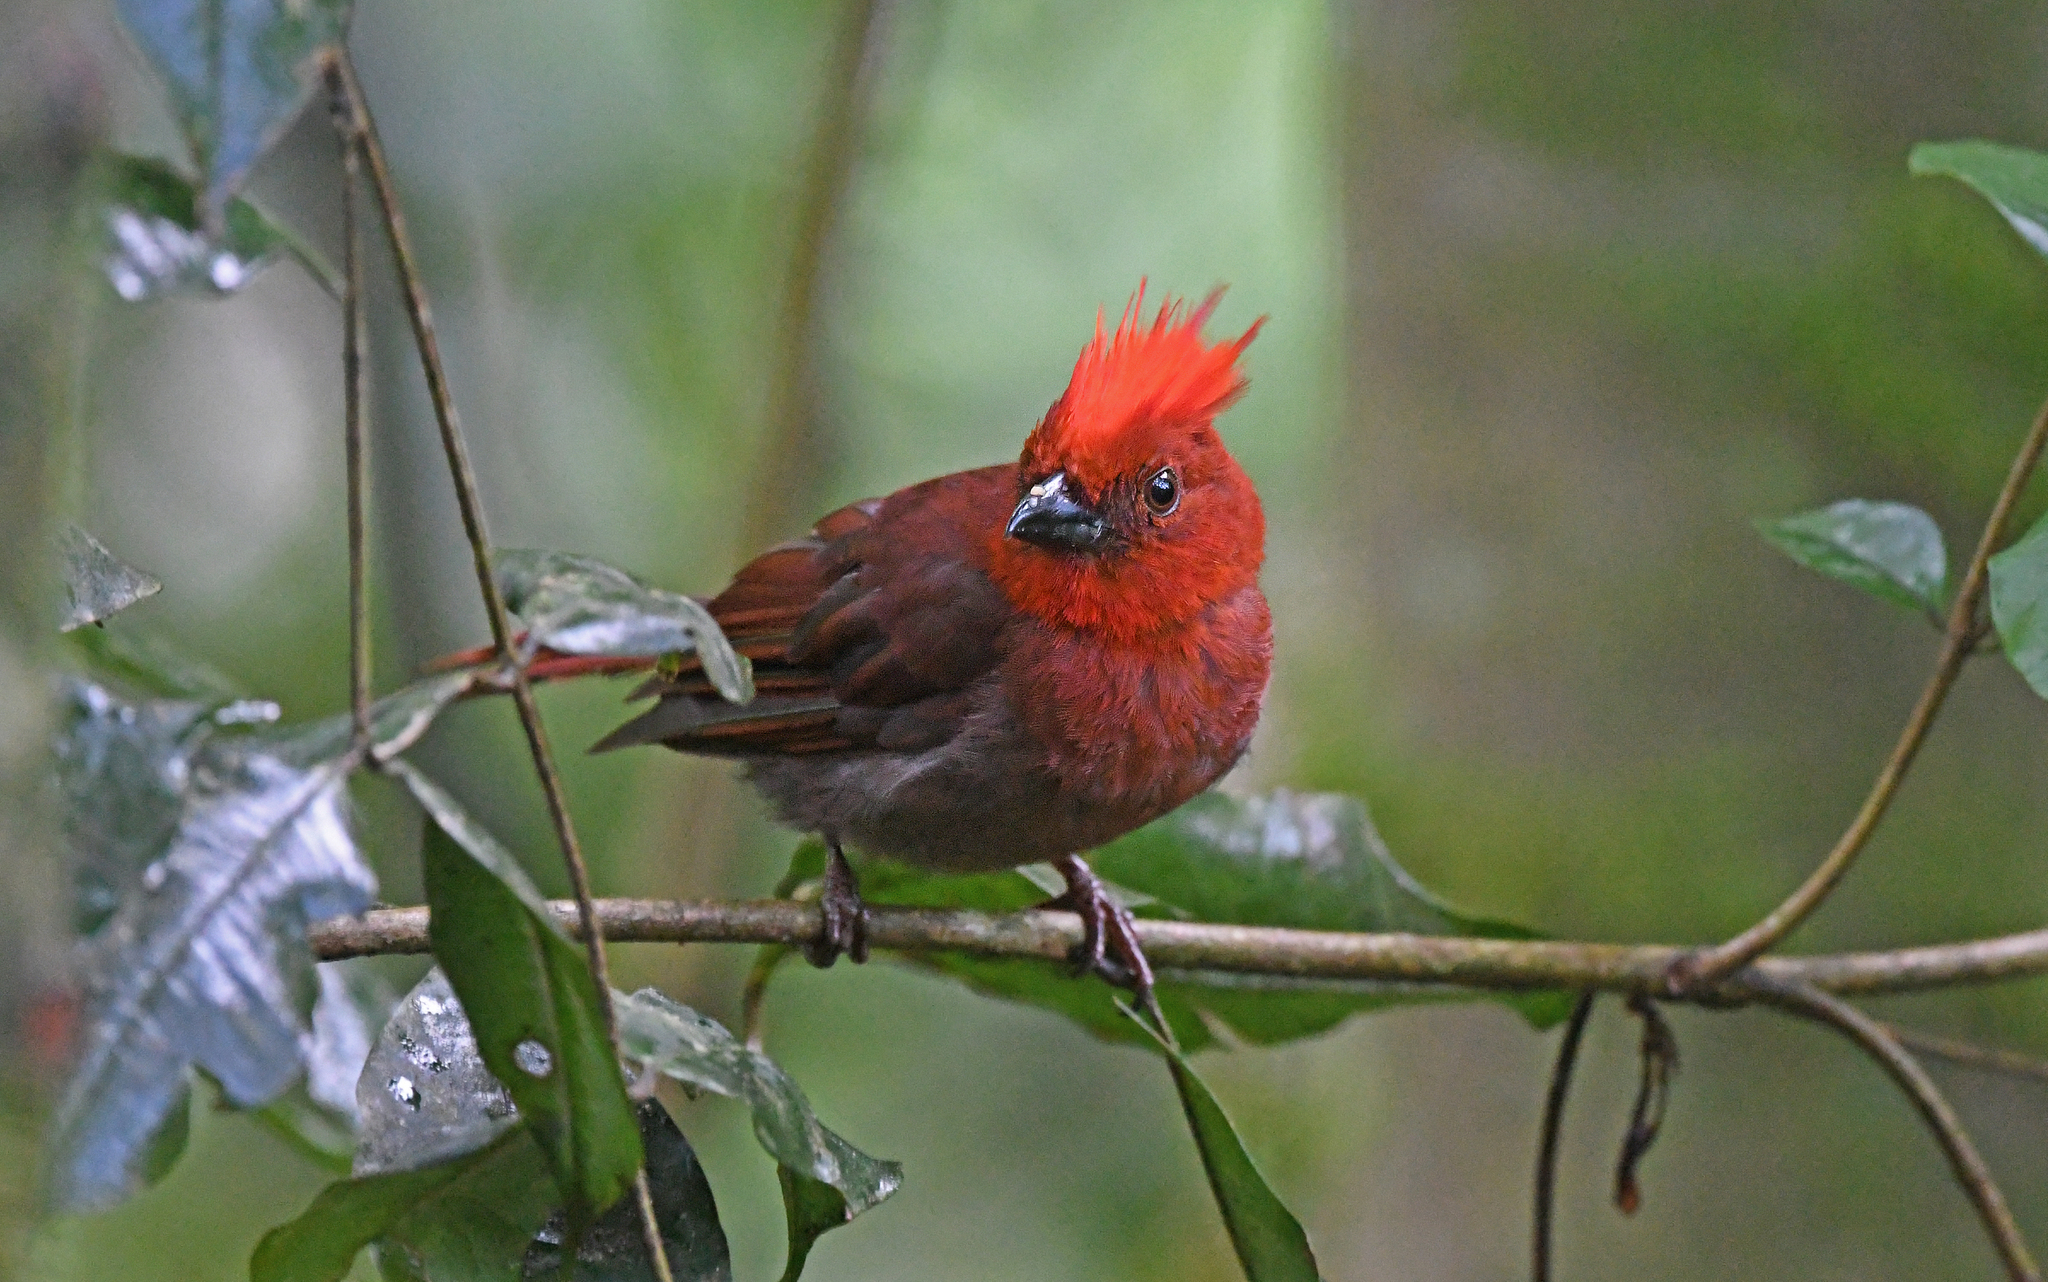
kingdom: Animalia
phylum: Chordata
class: Aves
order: Passeriformes
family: Cardinalidae
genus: Habia
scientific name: Habia cristata
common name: Crested ant tanager
